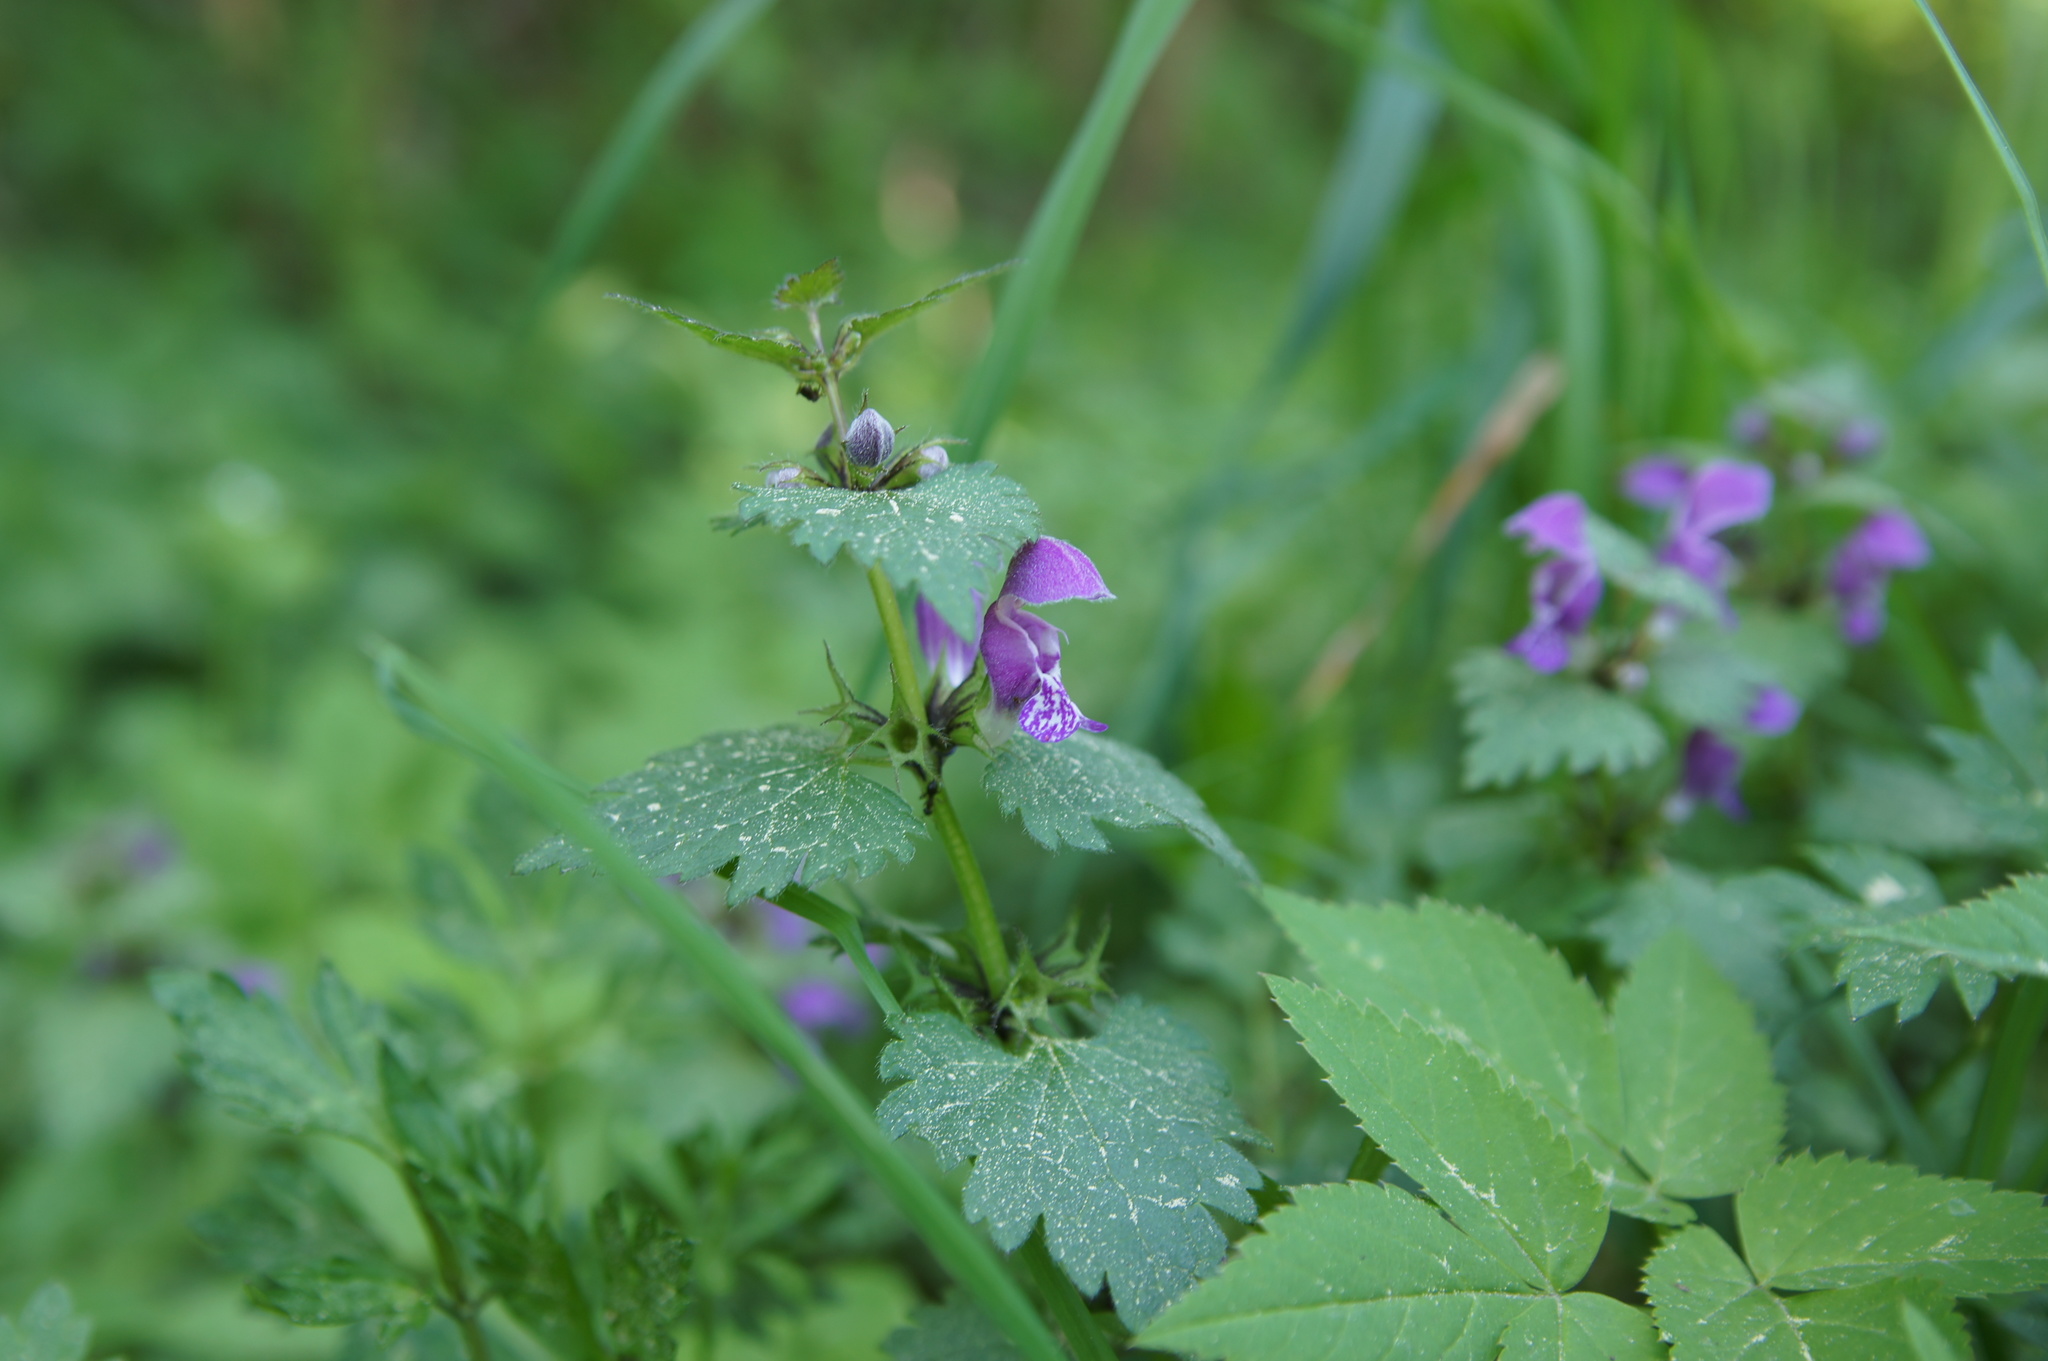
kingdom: Plantae
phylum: Tracheophyta
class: Magnoliopsida
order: Lamiales
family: Lamiaceae
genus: Lamium
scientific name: Lamium maculatum
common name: Spotted dead-nettle
